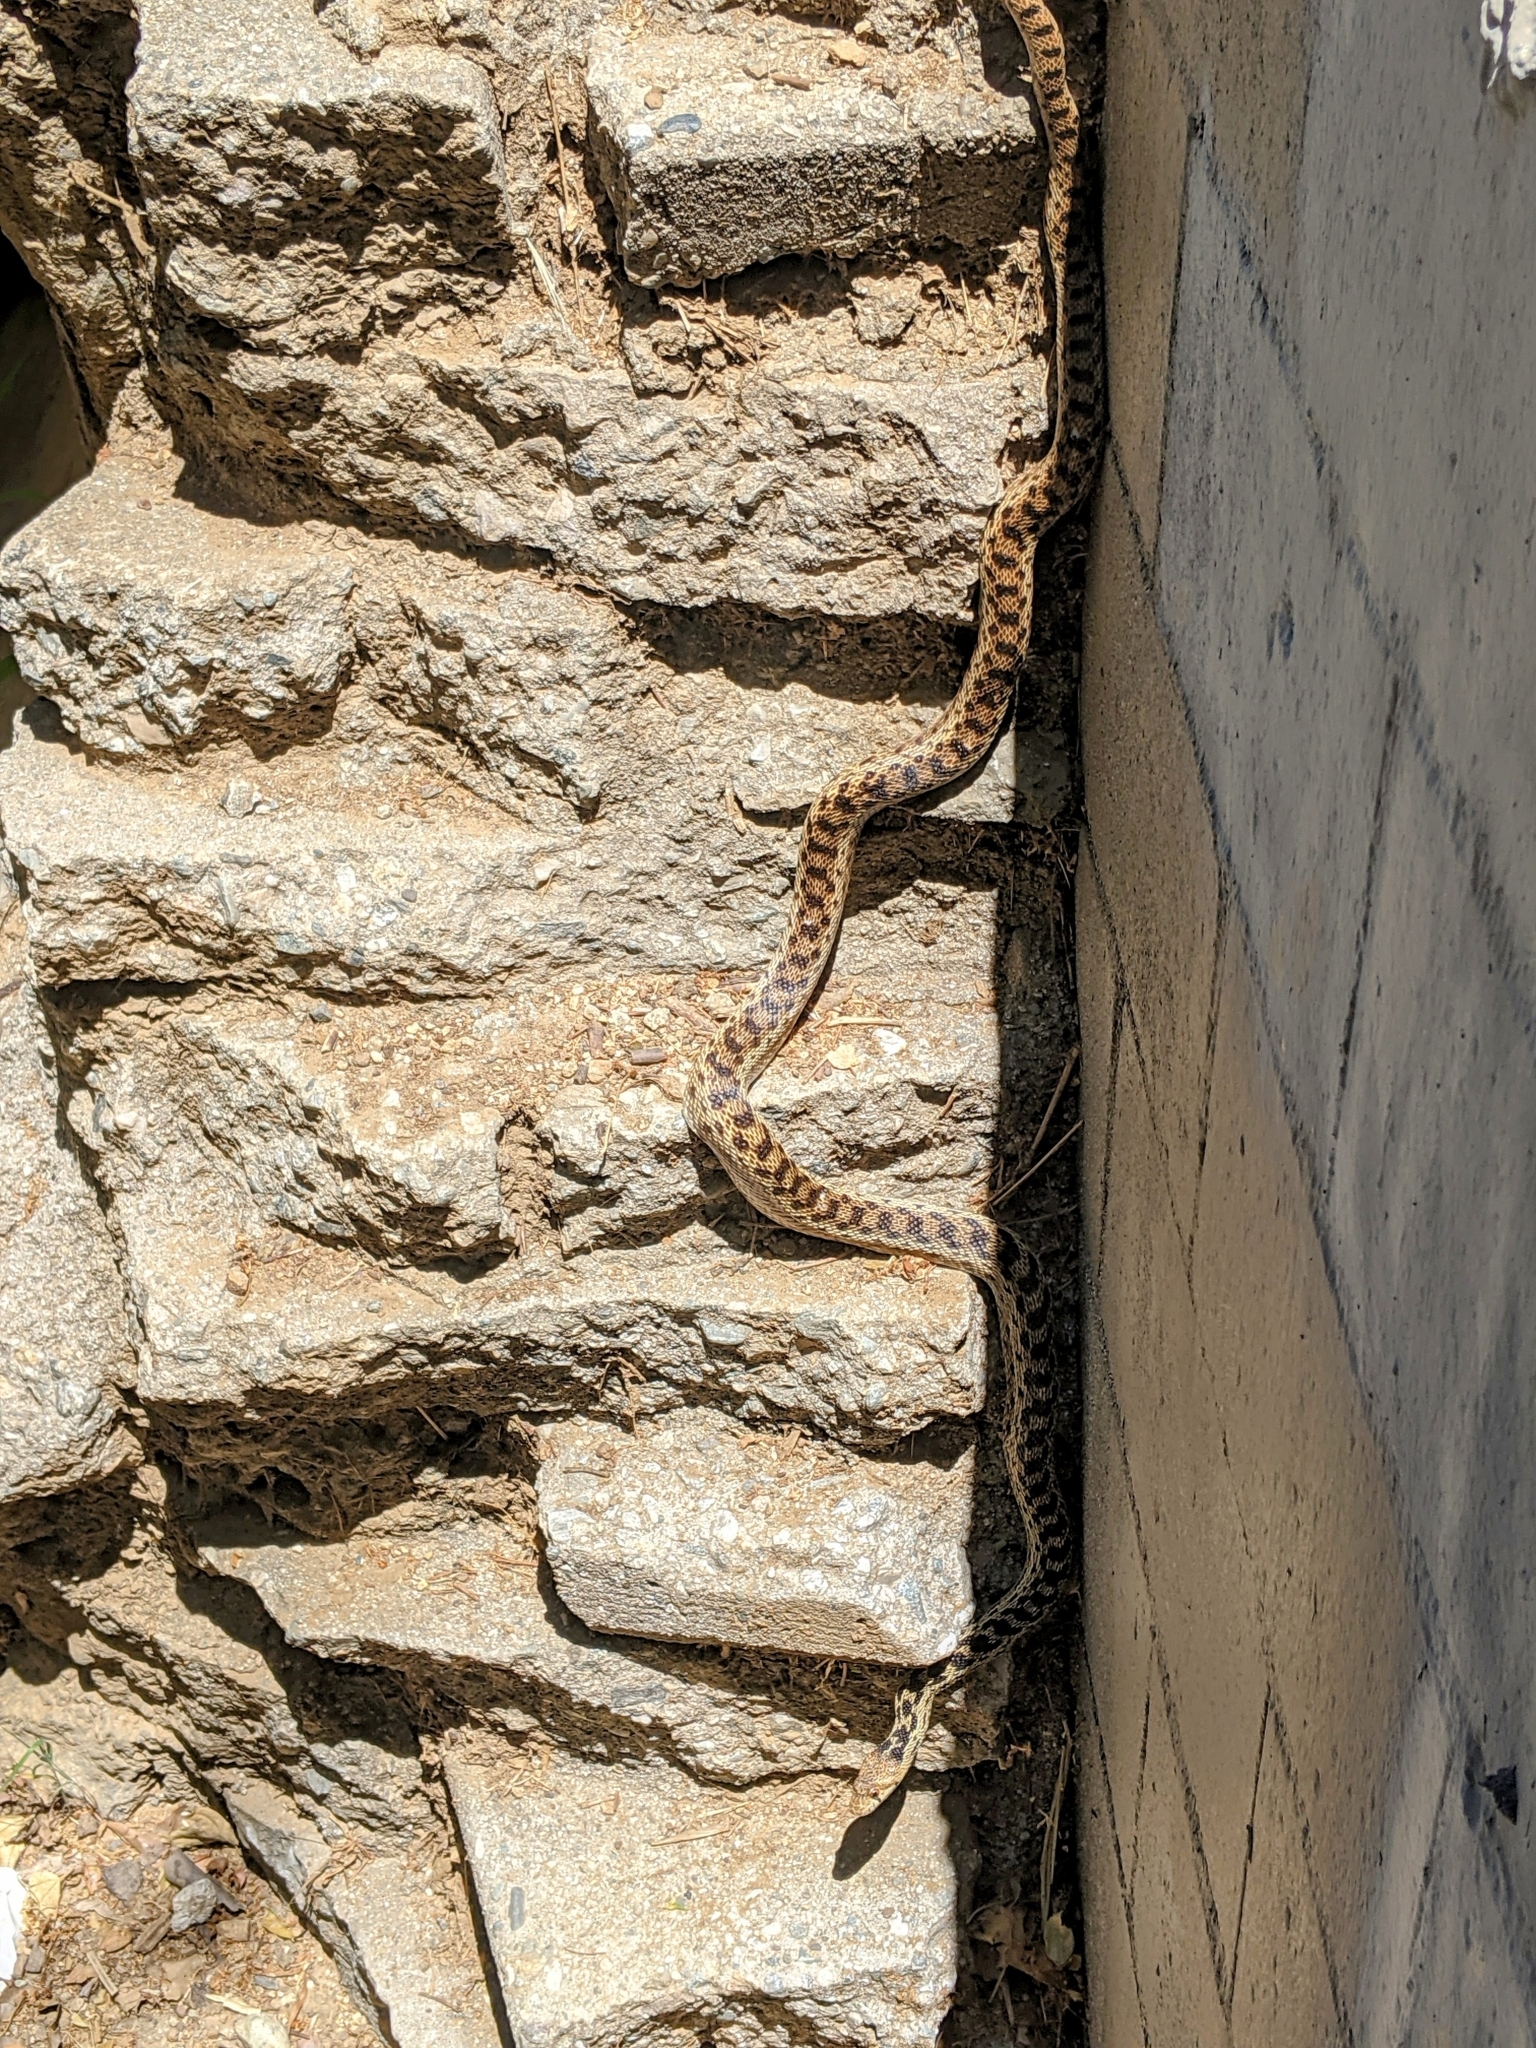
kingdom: Animalia
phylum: Chordata
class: Squamata
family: Colubridae
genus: Pituophis
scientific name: Pituophis catenifer
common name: Gopher snake
